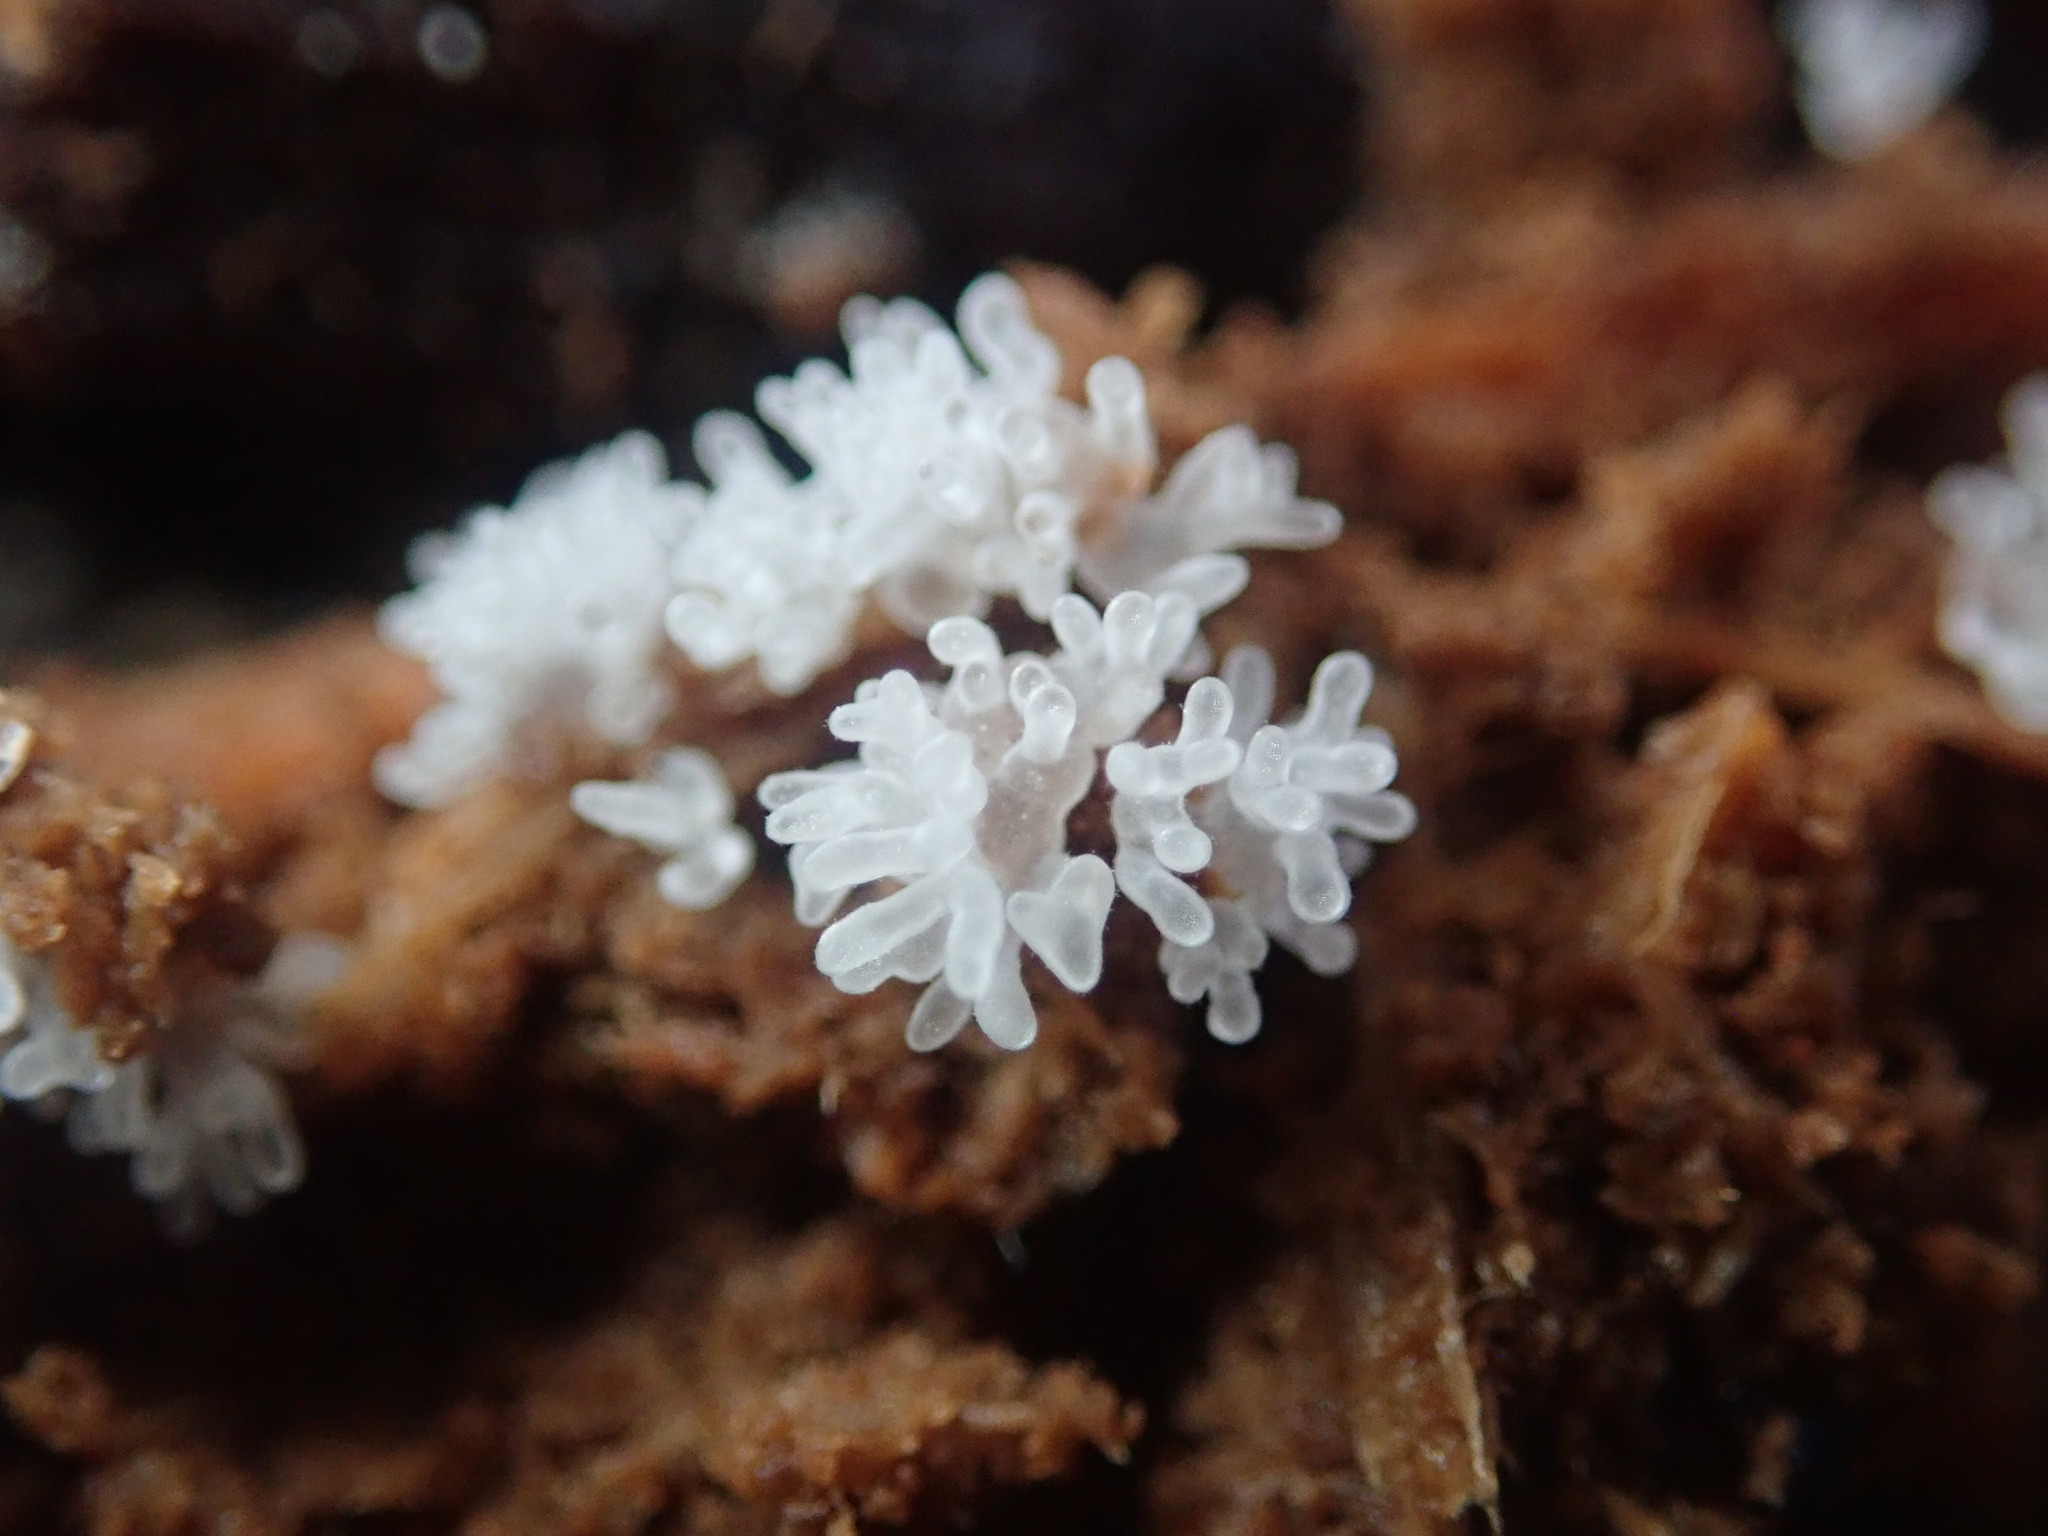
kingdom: Protozoa
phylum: Mycetozoa
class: Protosteliomycetes
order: Ceratiomyxales
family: Ceratiomyxaceae
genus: Ceratiomyxa
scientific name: Ceratiomyxa fruticulosa
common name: Honeycomb coral slime mold
